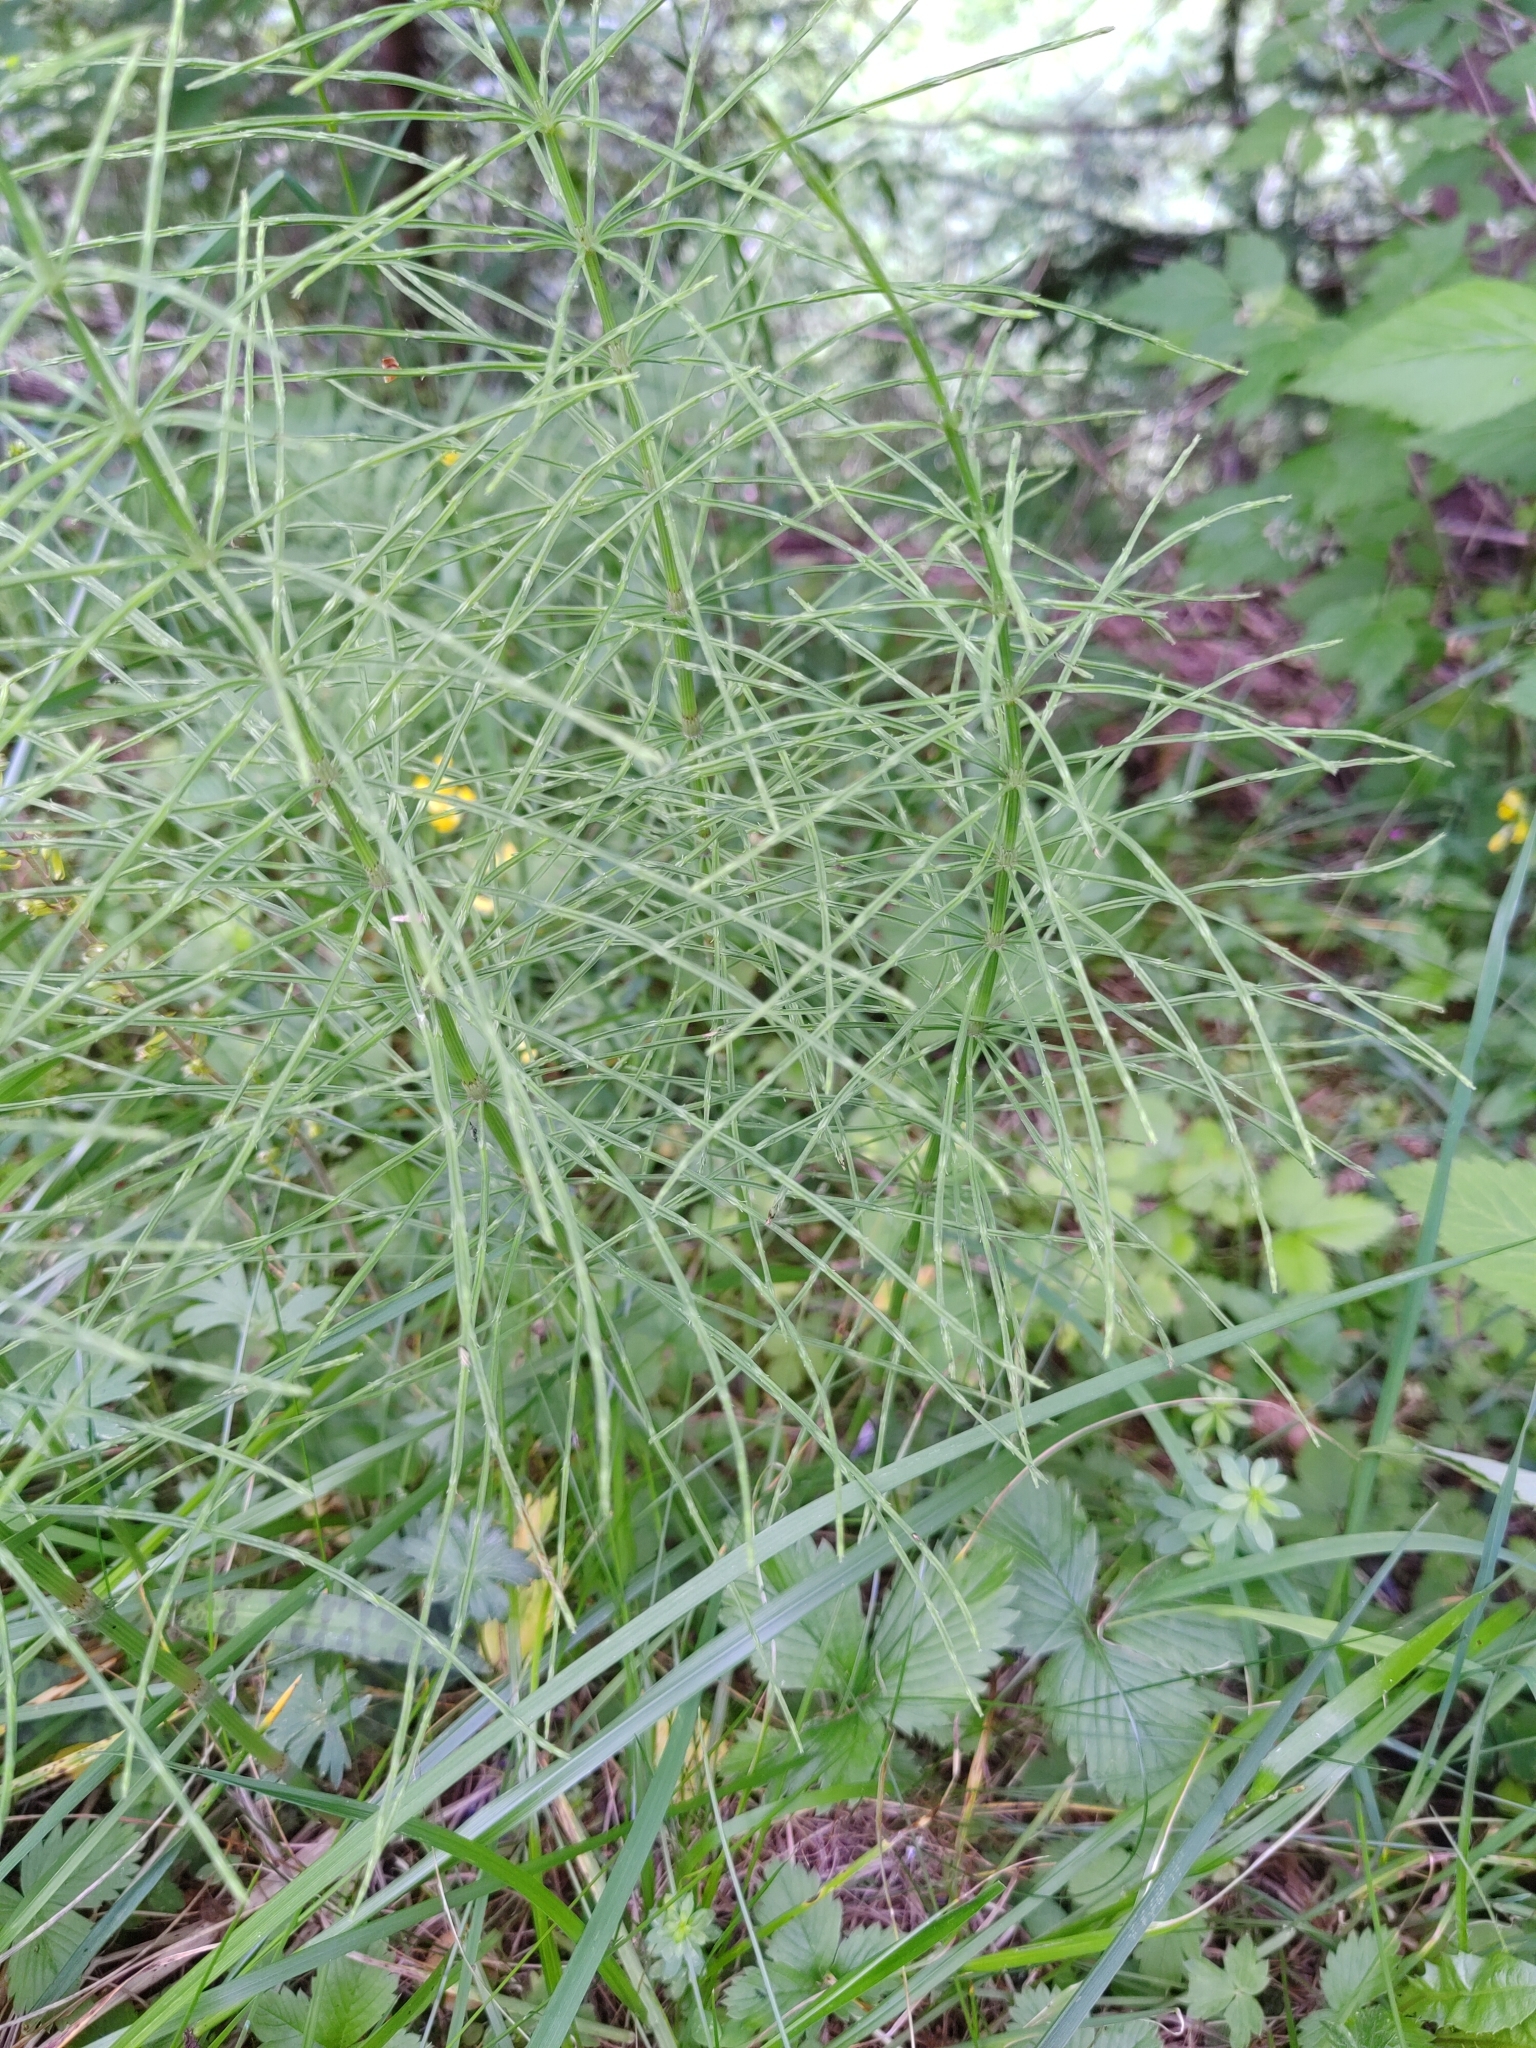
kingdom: Plantae
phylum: Tracheophyta
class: Polypodiopsida
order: Equisetales
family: Equisetaceae
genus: Equisetum
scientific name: Equisetum arvense
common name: Field horsetail
